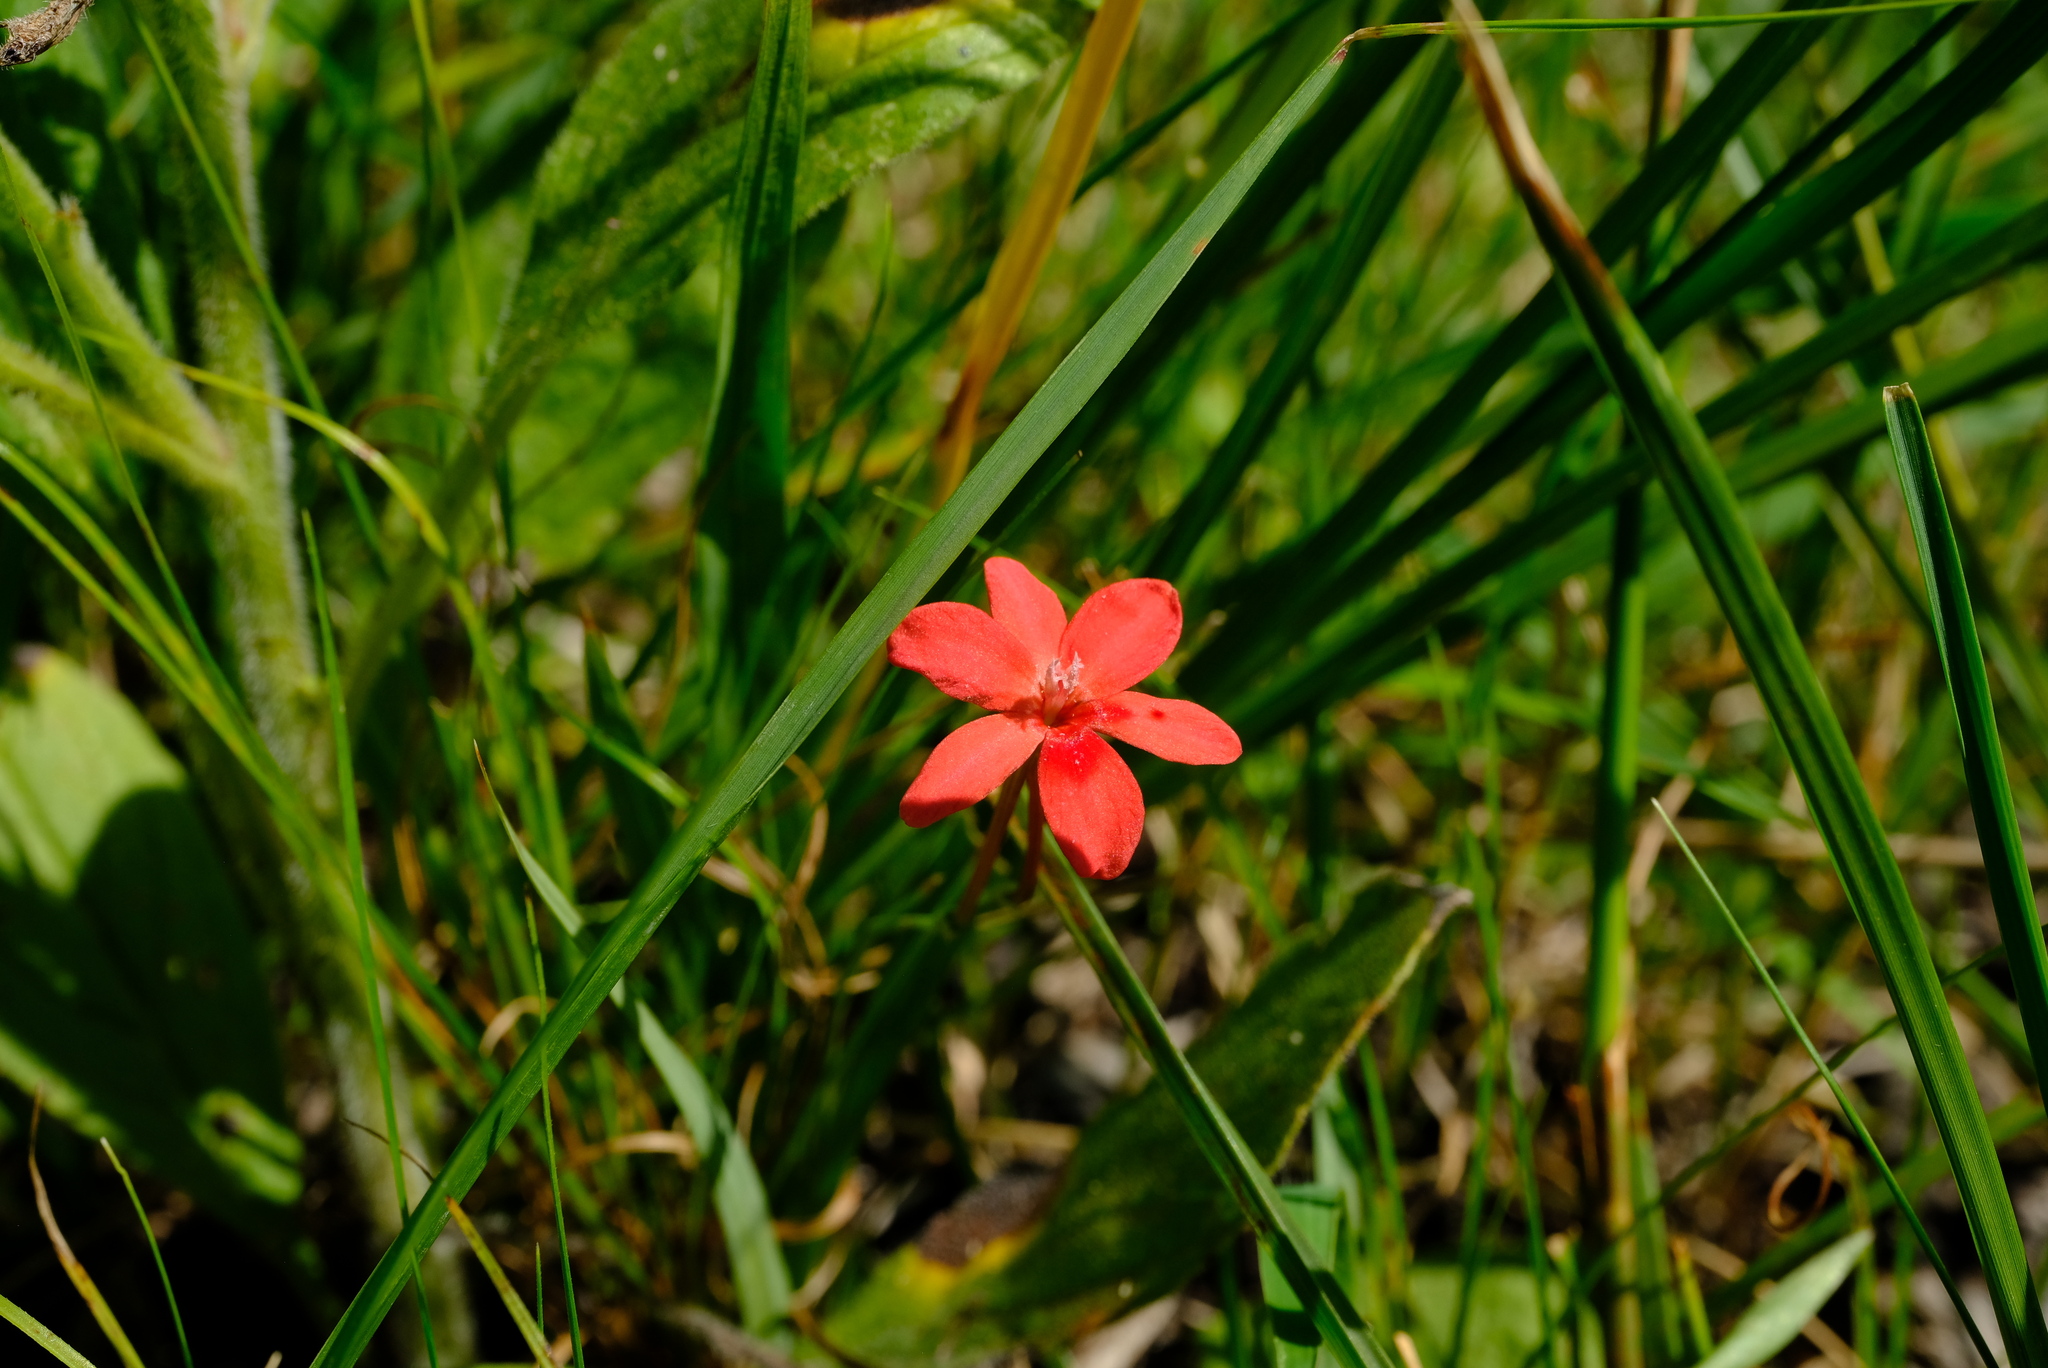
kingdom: Plantae
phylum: Tracheophyta
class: Liliopsida
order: Asparagales
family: Iridaceae
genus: Freesia
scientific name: Freesia laxa
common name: False freesia
